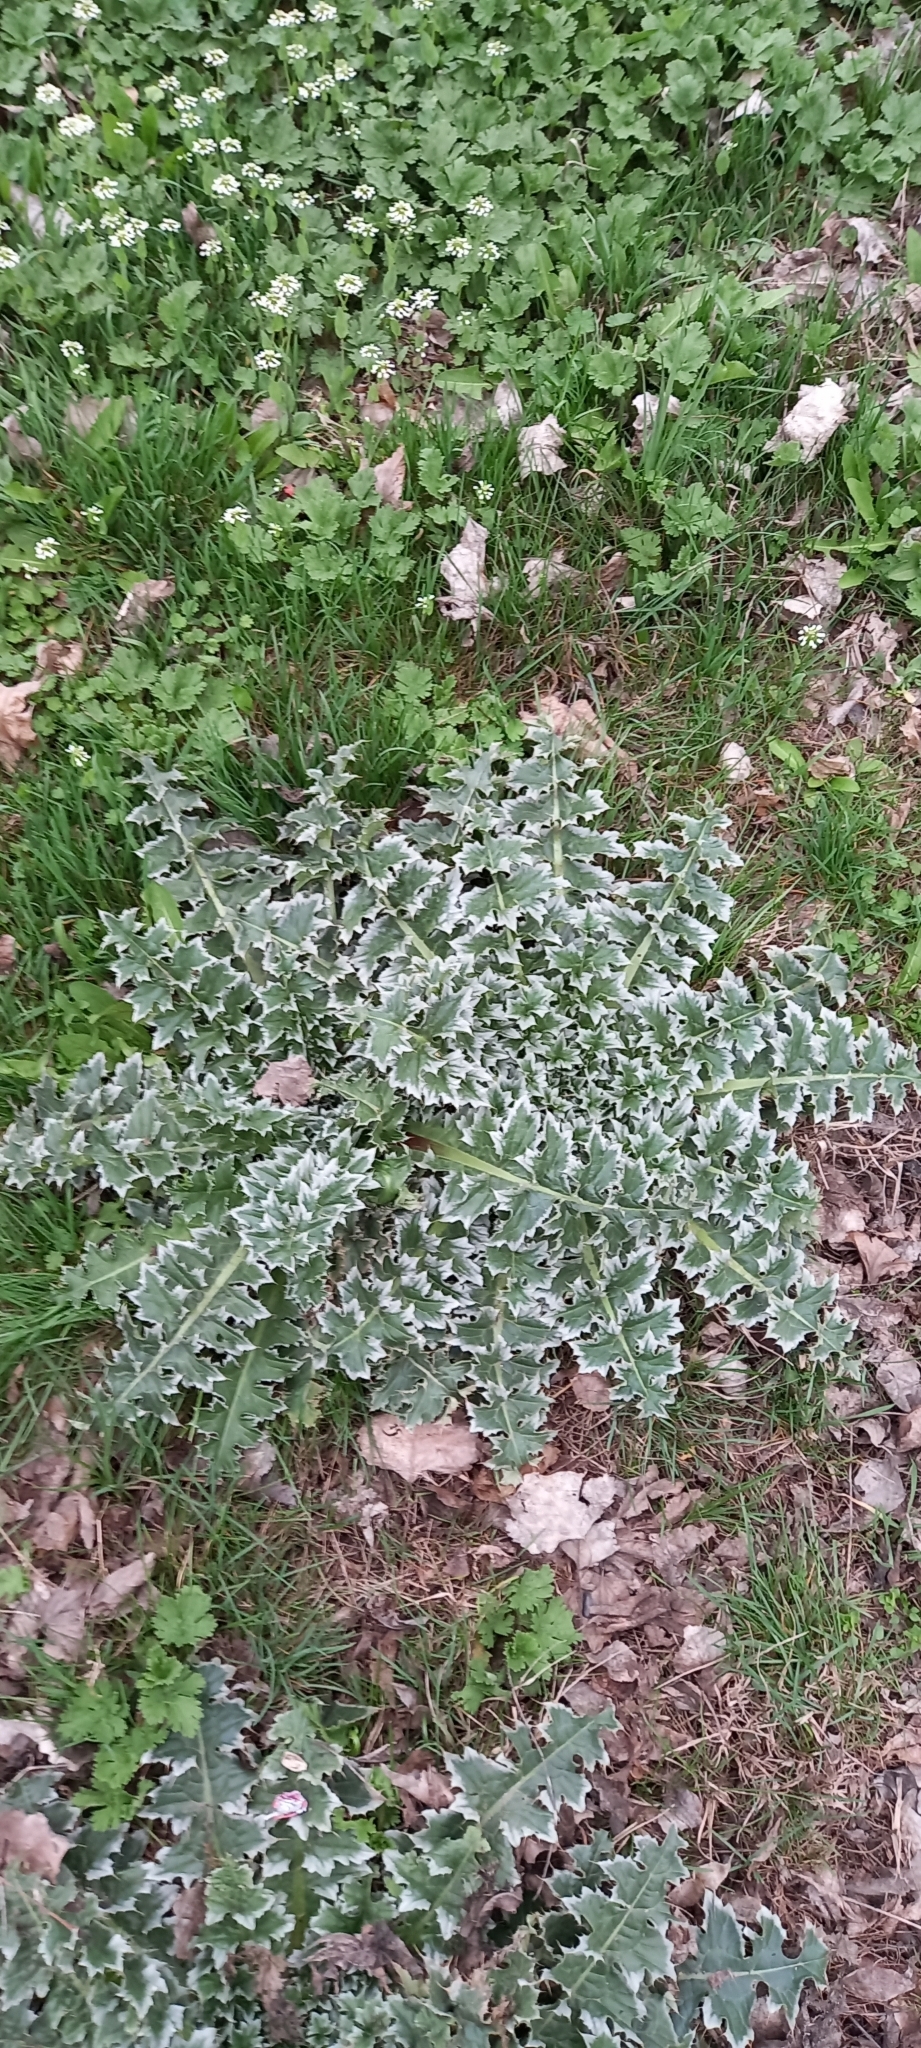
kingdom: Plantae
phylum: Tracheophyta
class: Magnoliopsida
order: Asterales
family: Asteraceae
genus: Carduus
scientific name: Carduus nutans
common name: Musk thistle
